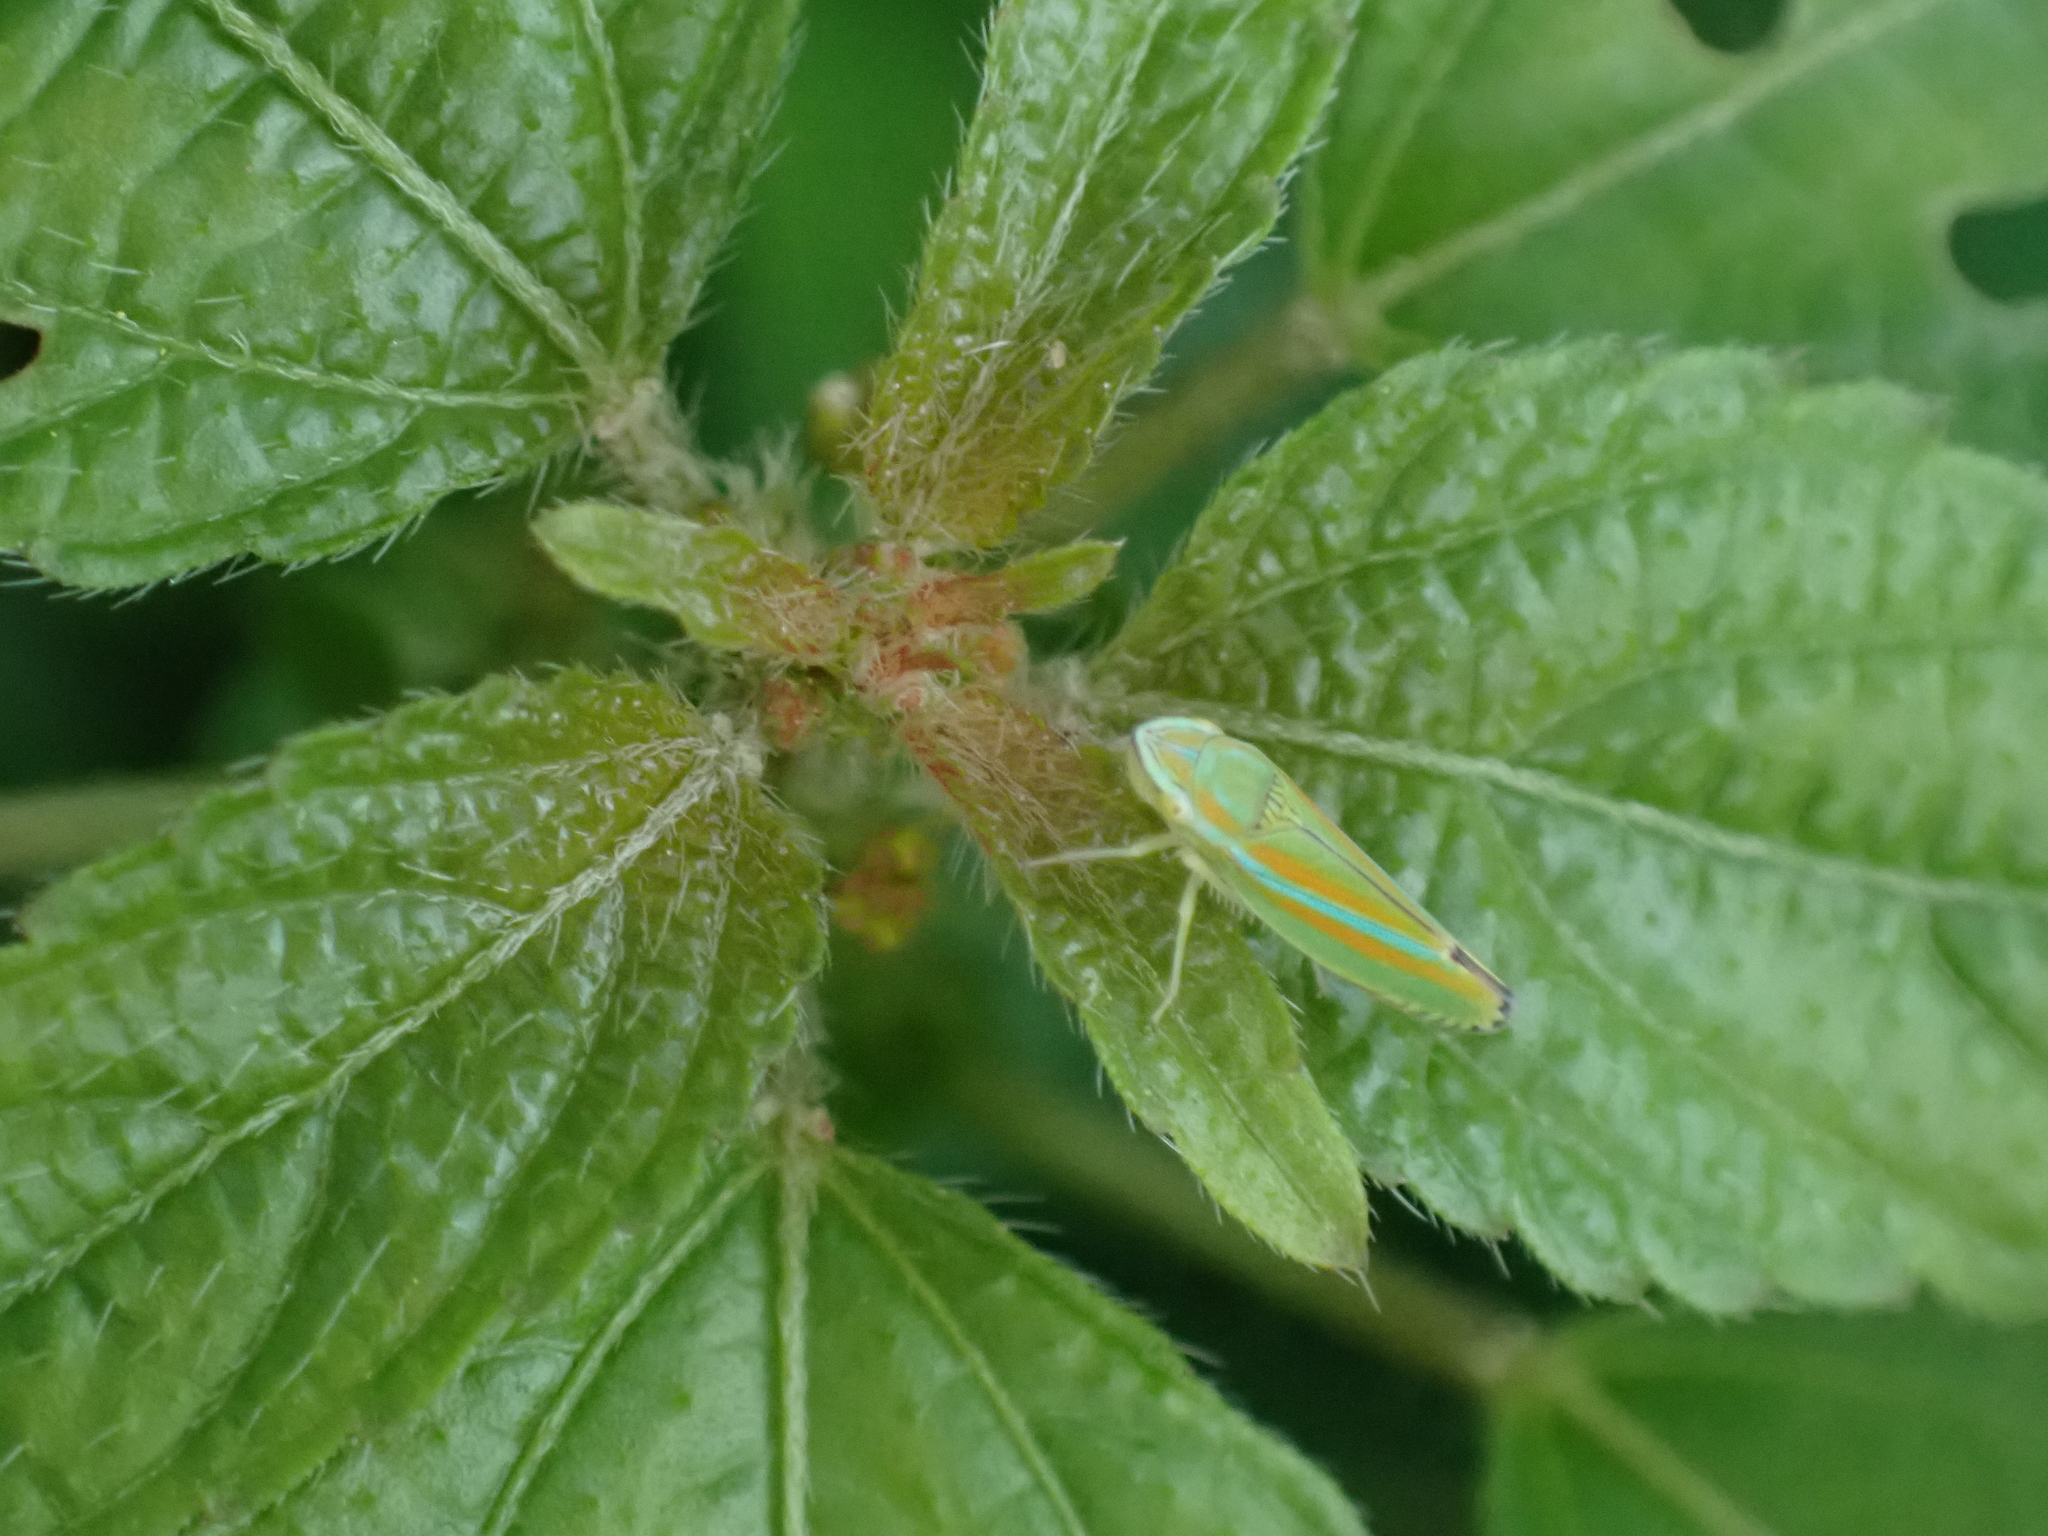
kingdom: Animalia
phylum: Arthropoda
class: Insecta
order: Hemiptera
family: Cicadellidae
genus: Graphocephala
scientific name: Graphocephala versuta
